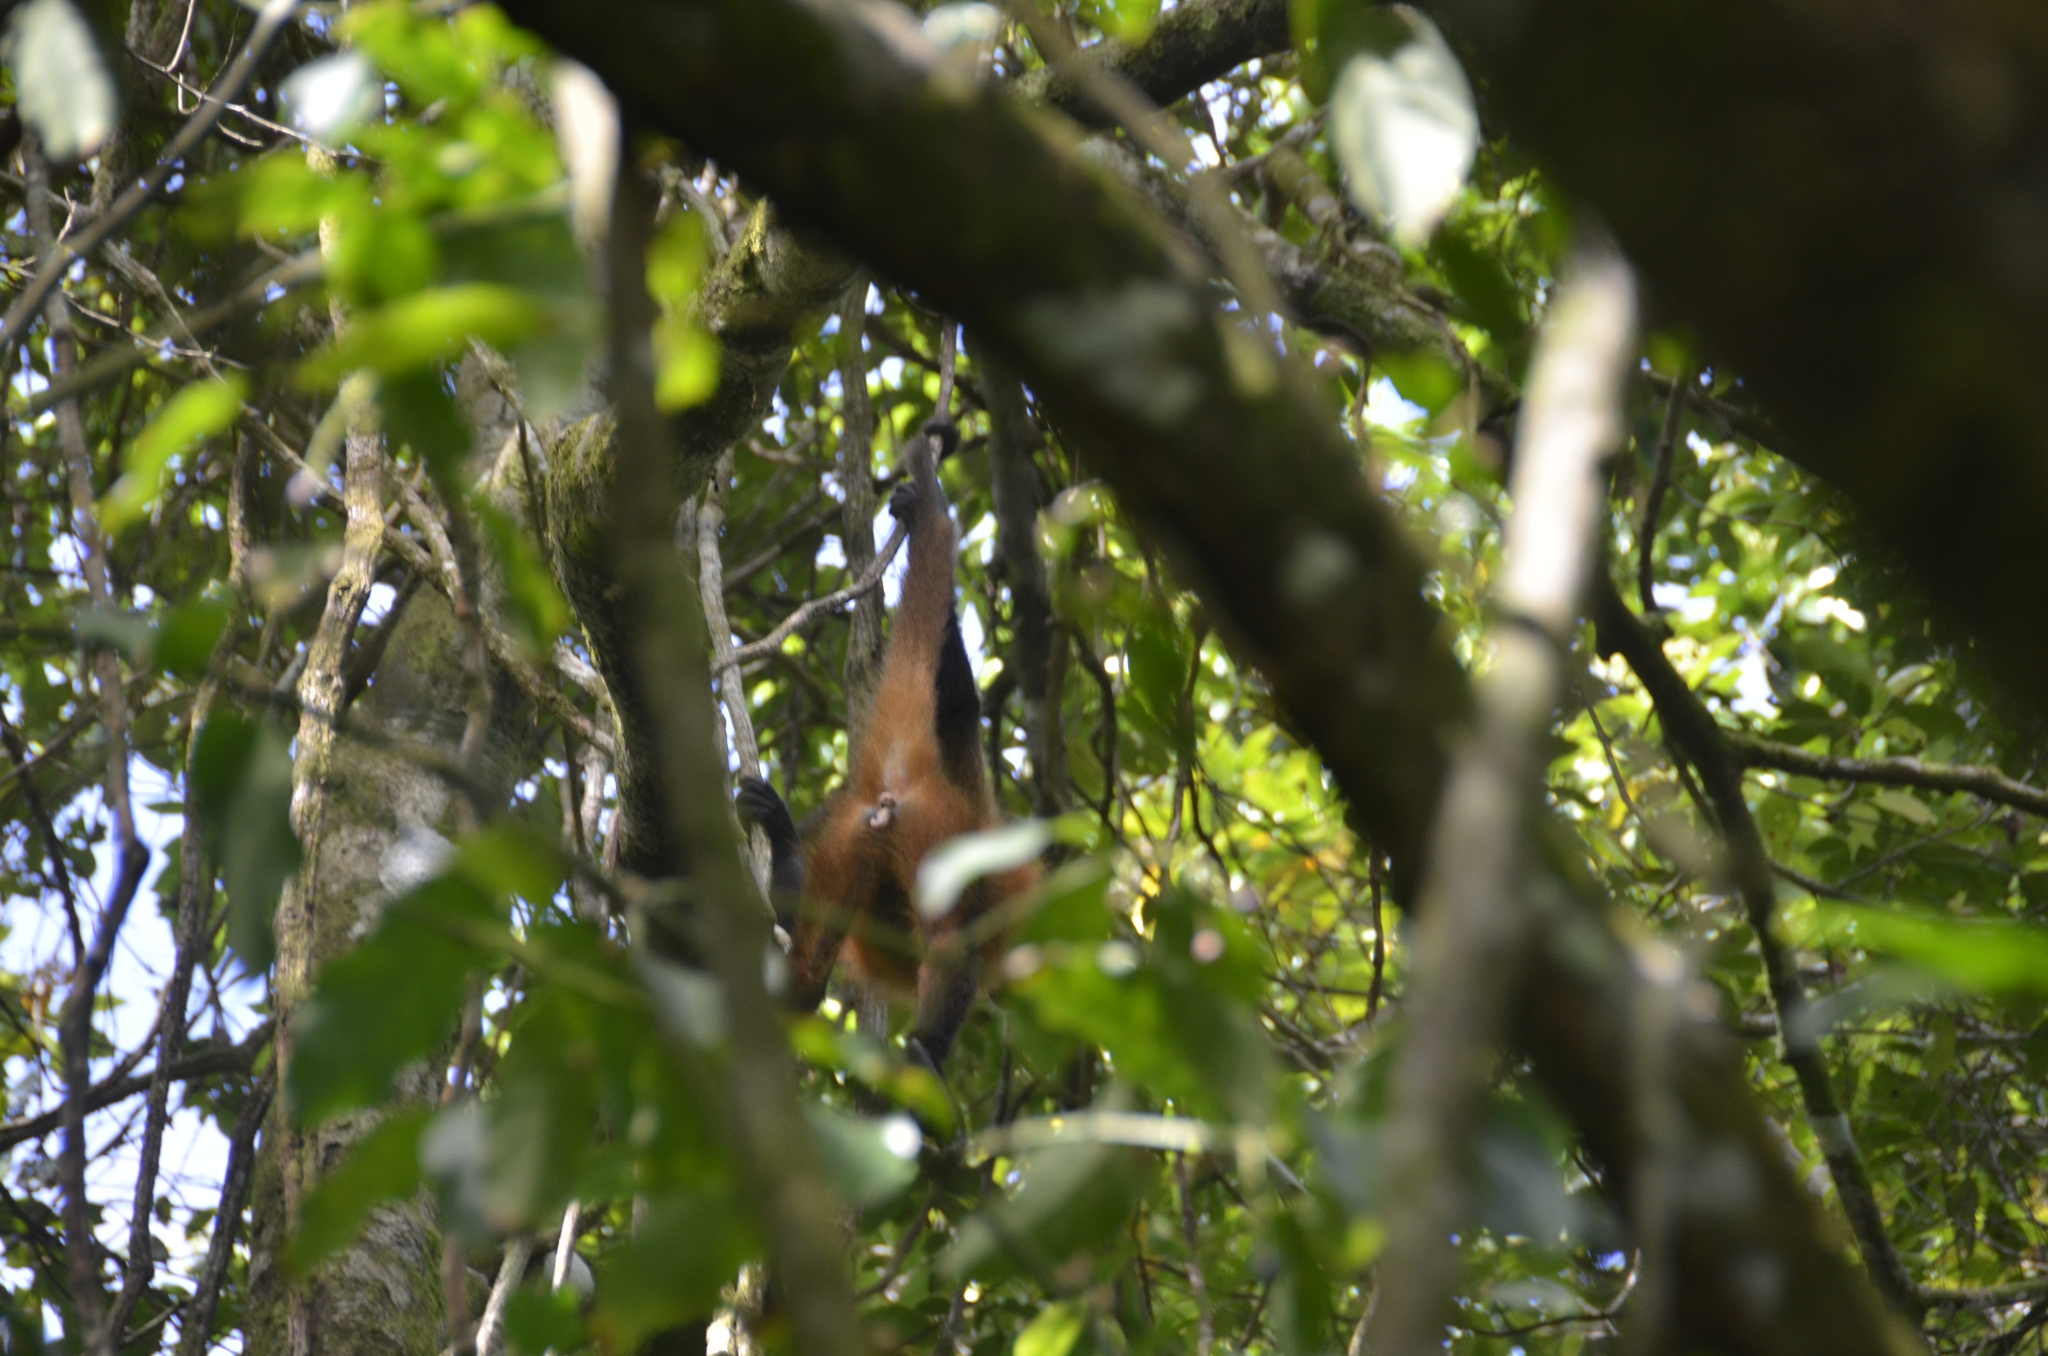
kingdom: Animalia
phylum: Chordata
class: Mammalia
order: Primates
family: Atelidae
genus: Ateles
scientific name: Ateles geoffroyi
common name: Black-handed spider monkey
